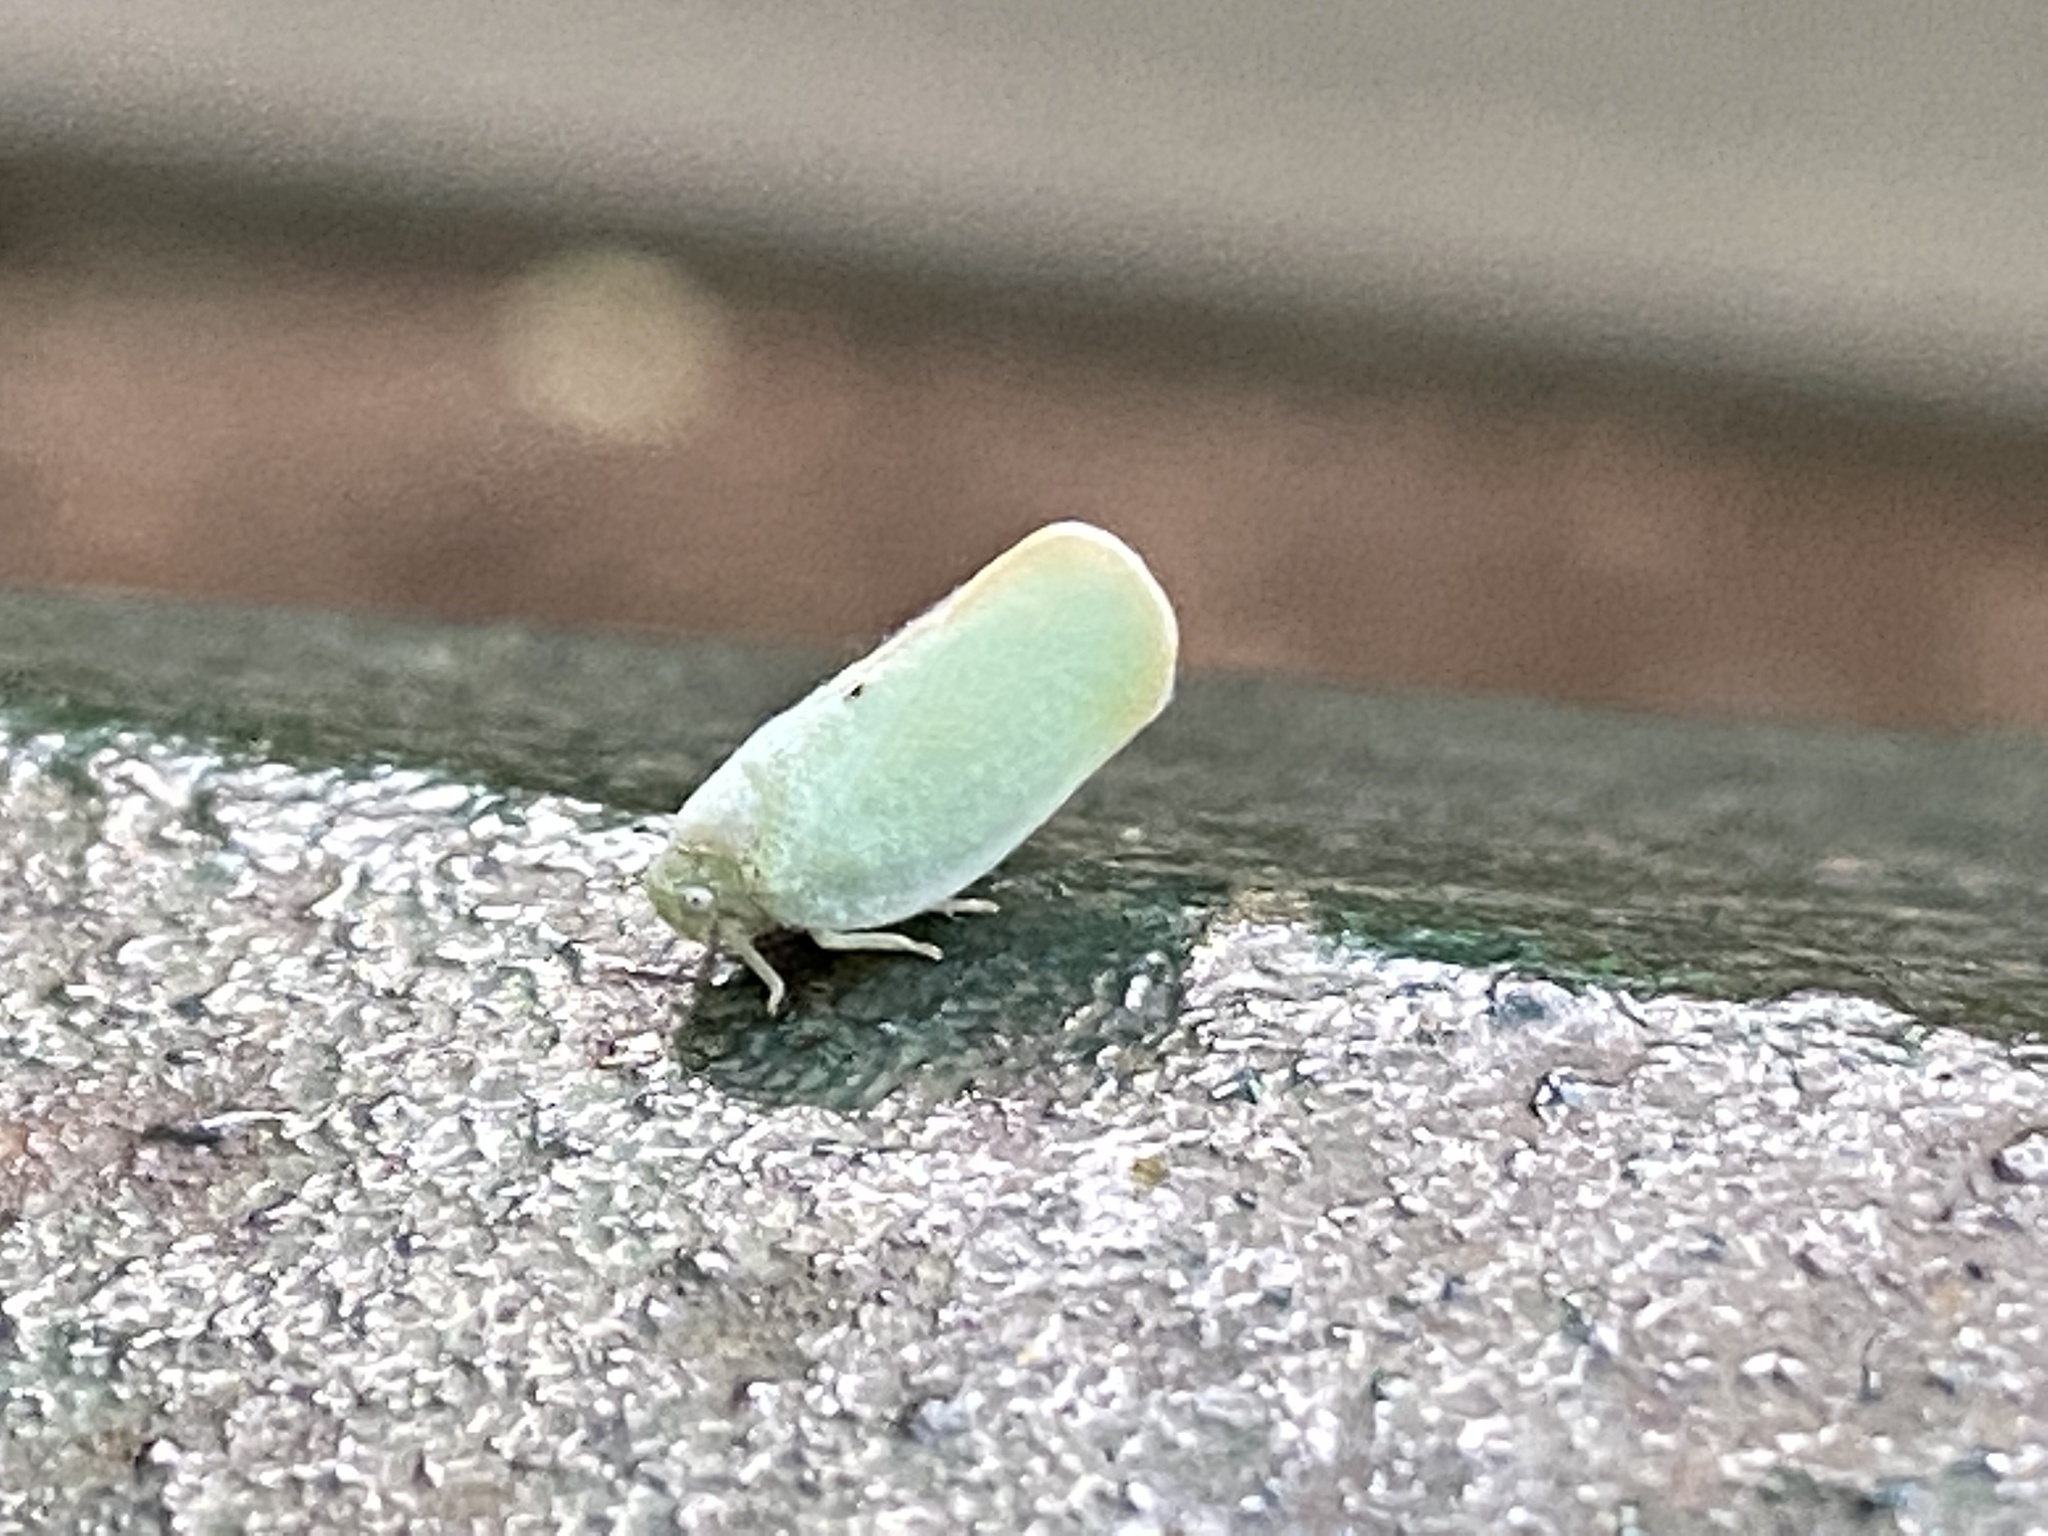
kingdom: Animalia
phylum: Arthropoda
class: Insecta
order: Hemiptera
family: Flatidae
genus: Ormenoides
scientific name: Ormenoides venusta
